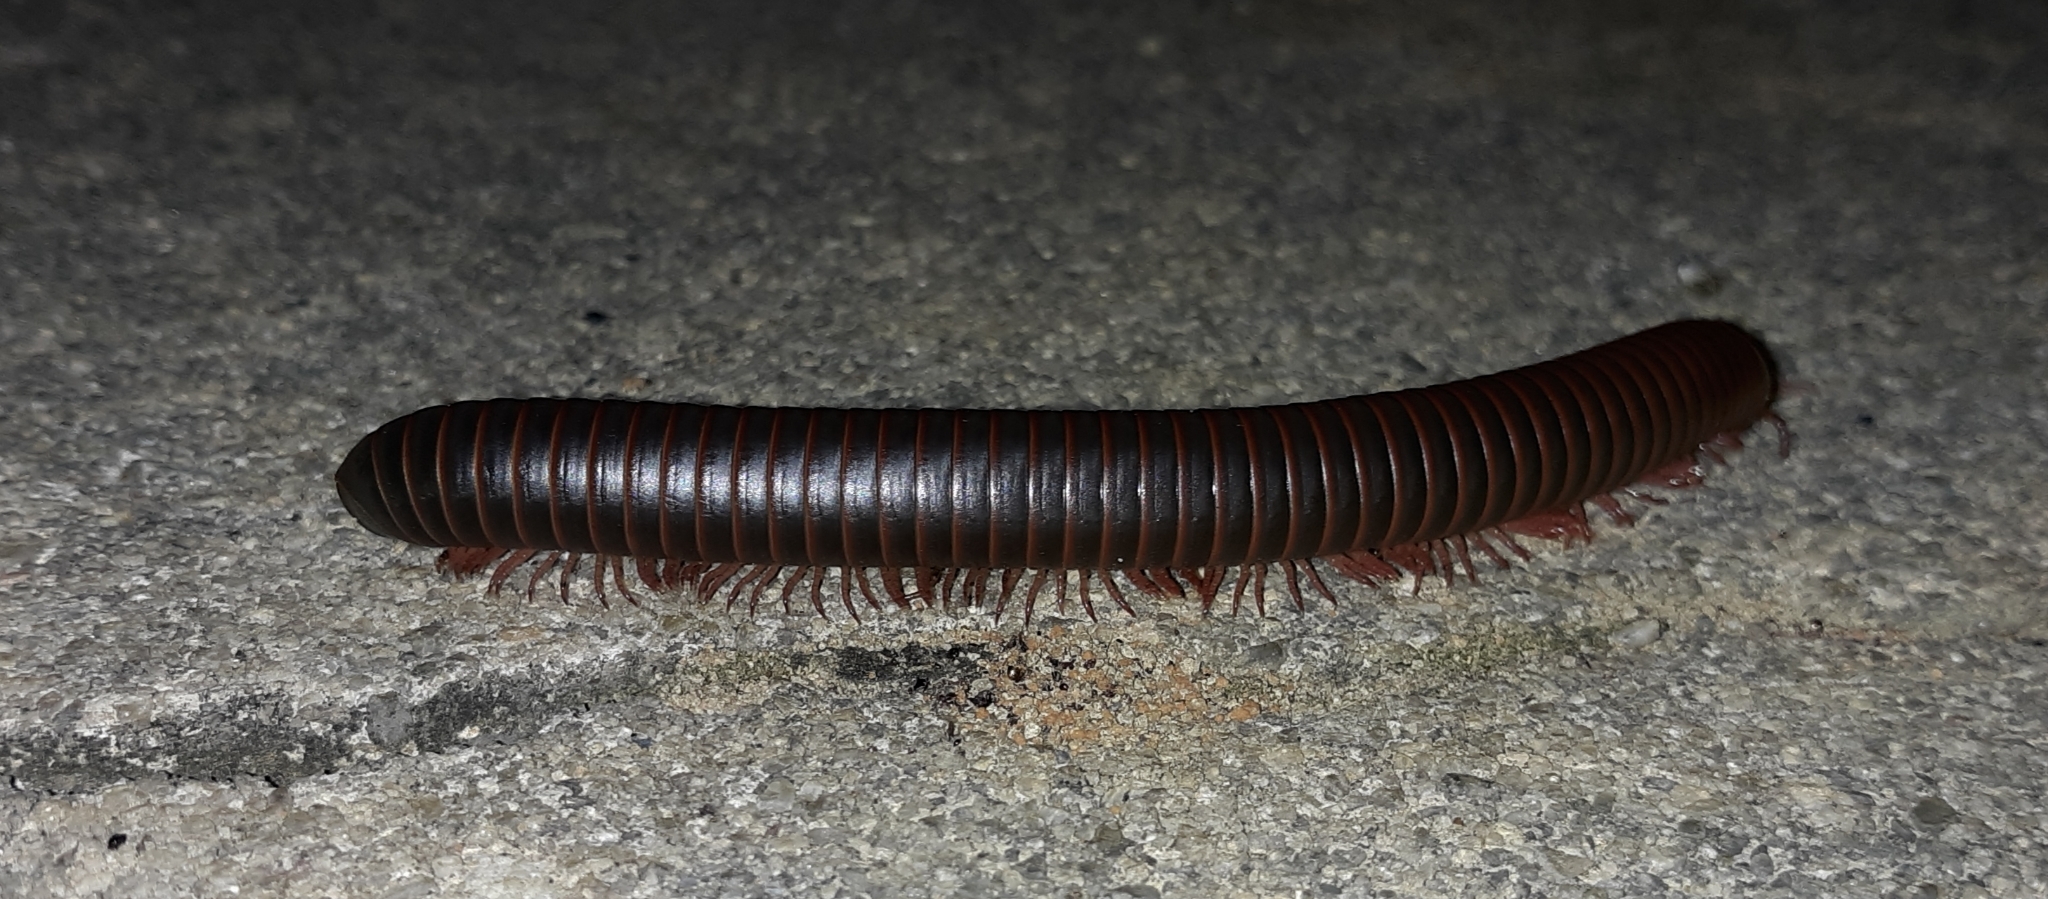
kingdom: Animalia
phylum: Arthropoda
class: Diplopoda
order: Spirobolida
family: Spirobolidae
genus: Narceus
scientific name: Narceus
